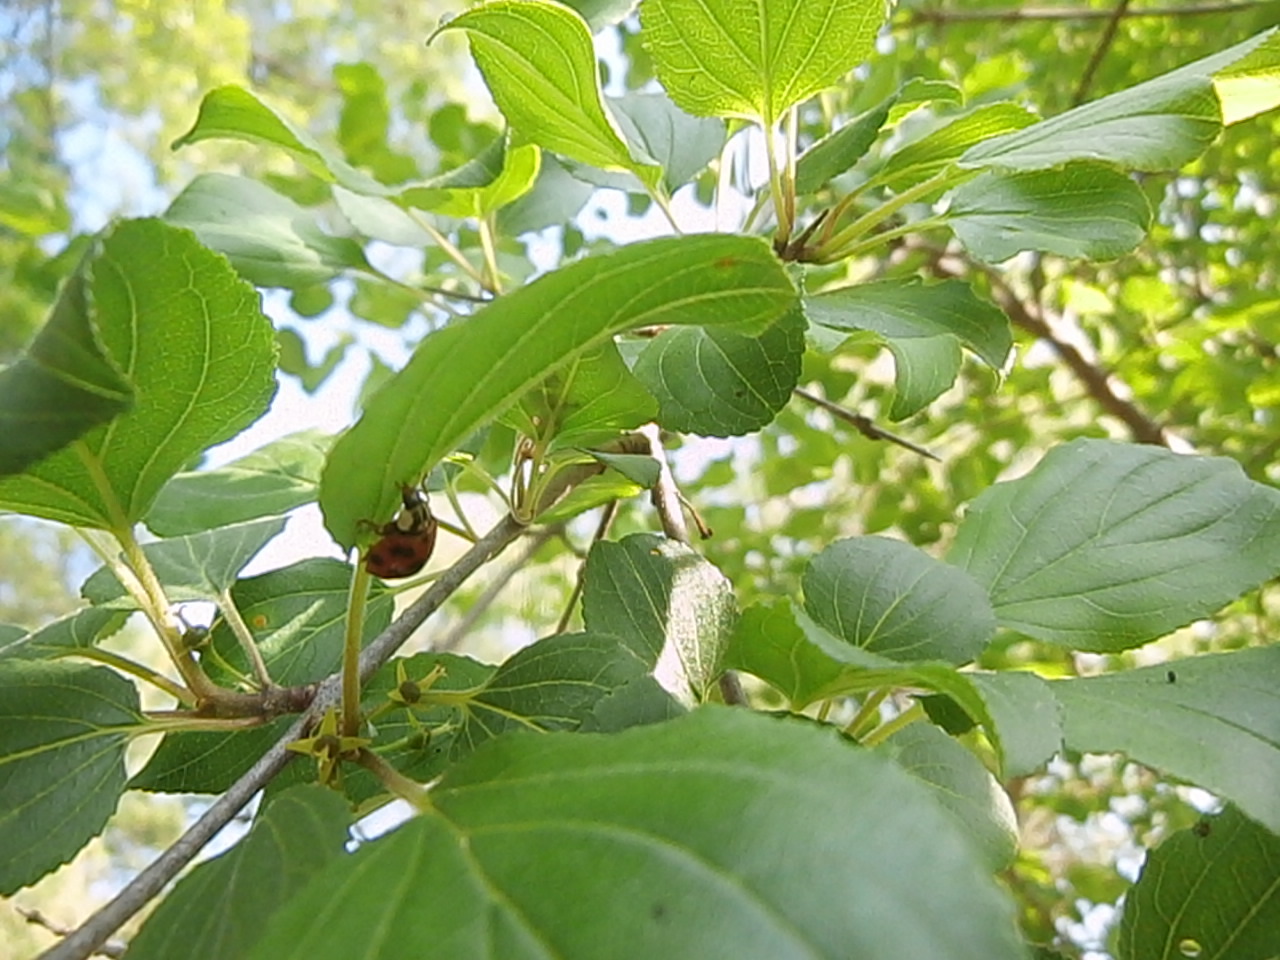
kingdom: Animalia
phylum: Arthropoda
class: Insecta
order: Coleoptera
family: Coccinellidae
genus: Coccinella
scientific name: Coccinella septempunctata
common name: Sevenspotted lady beetle
